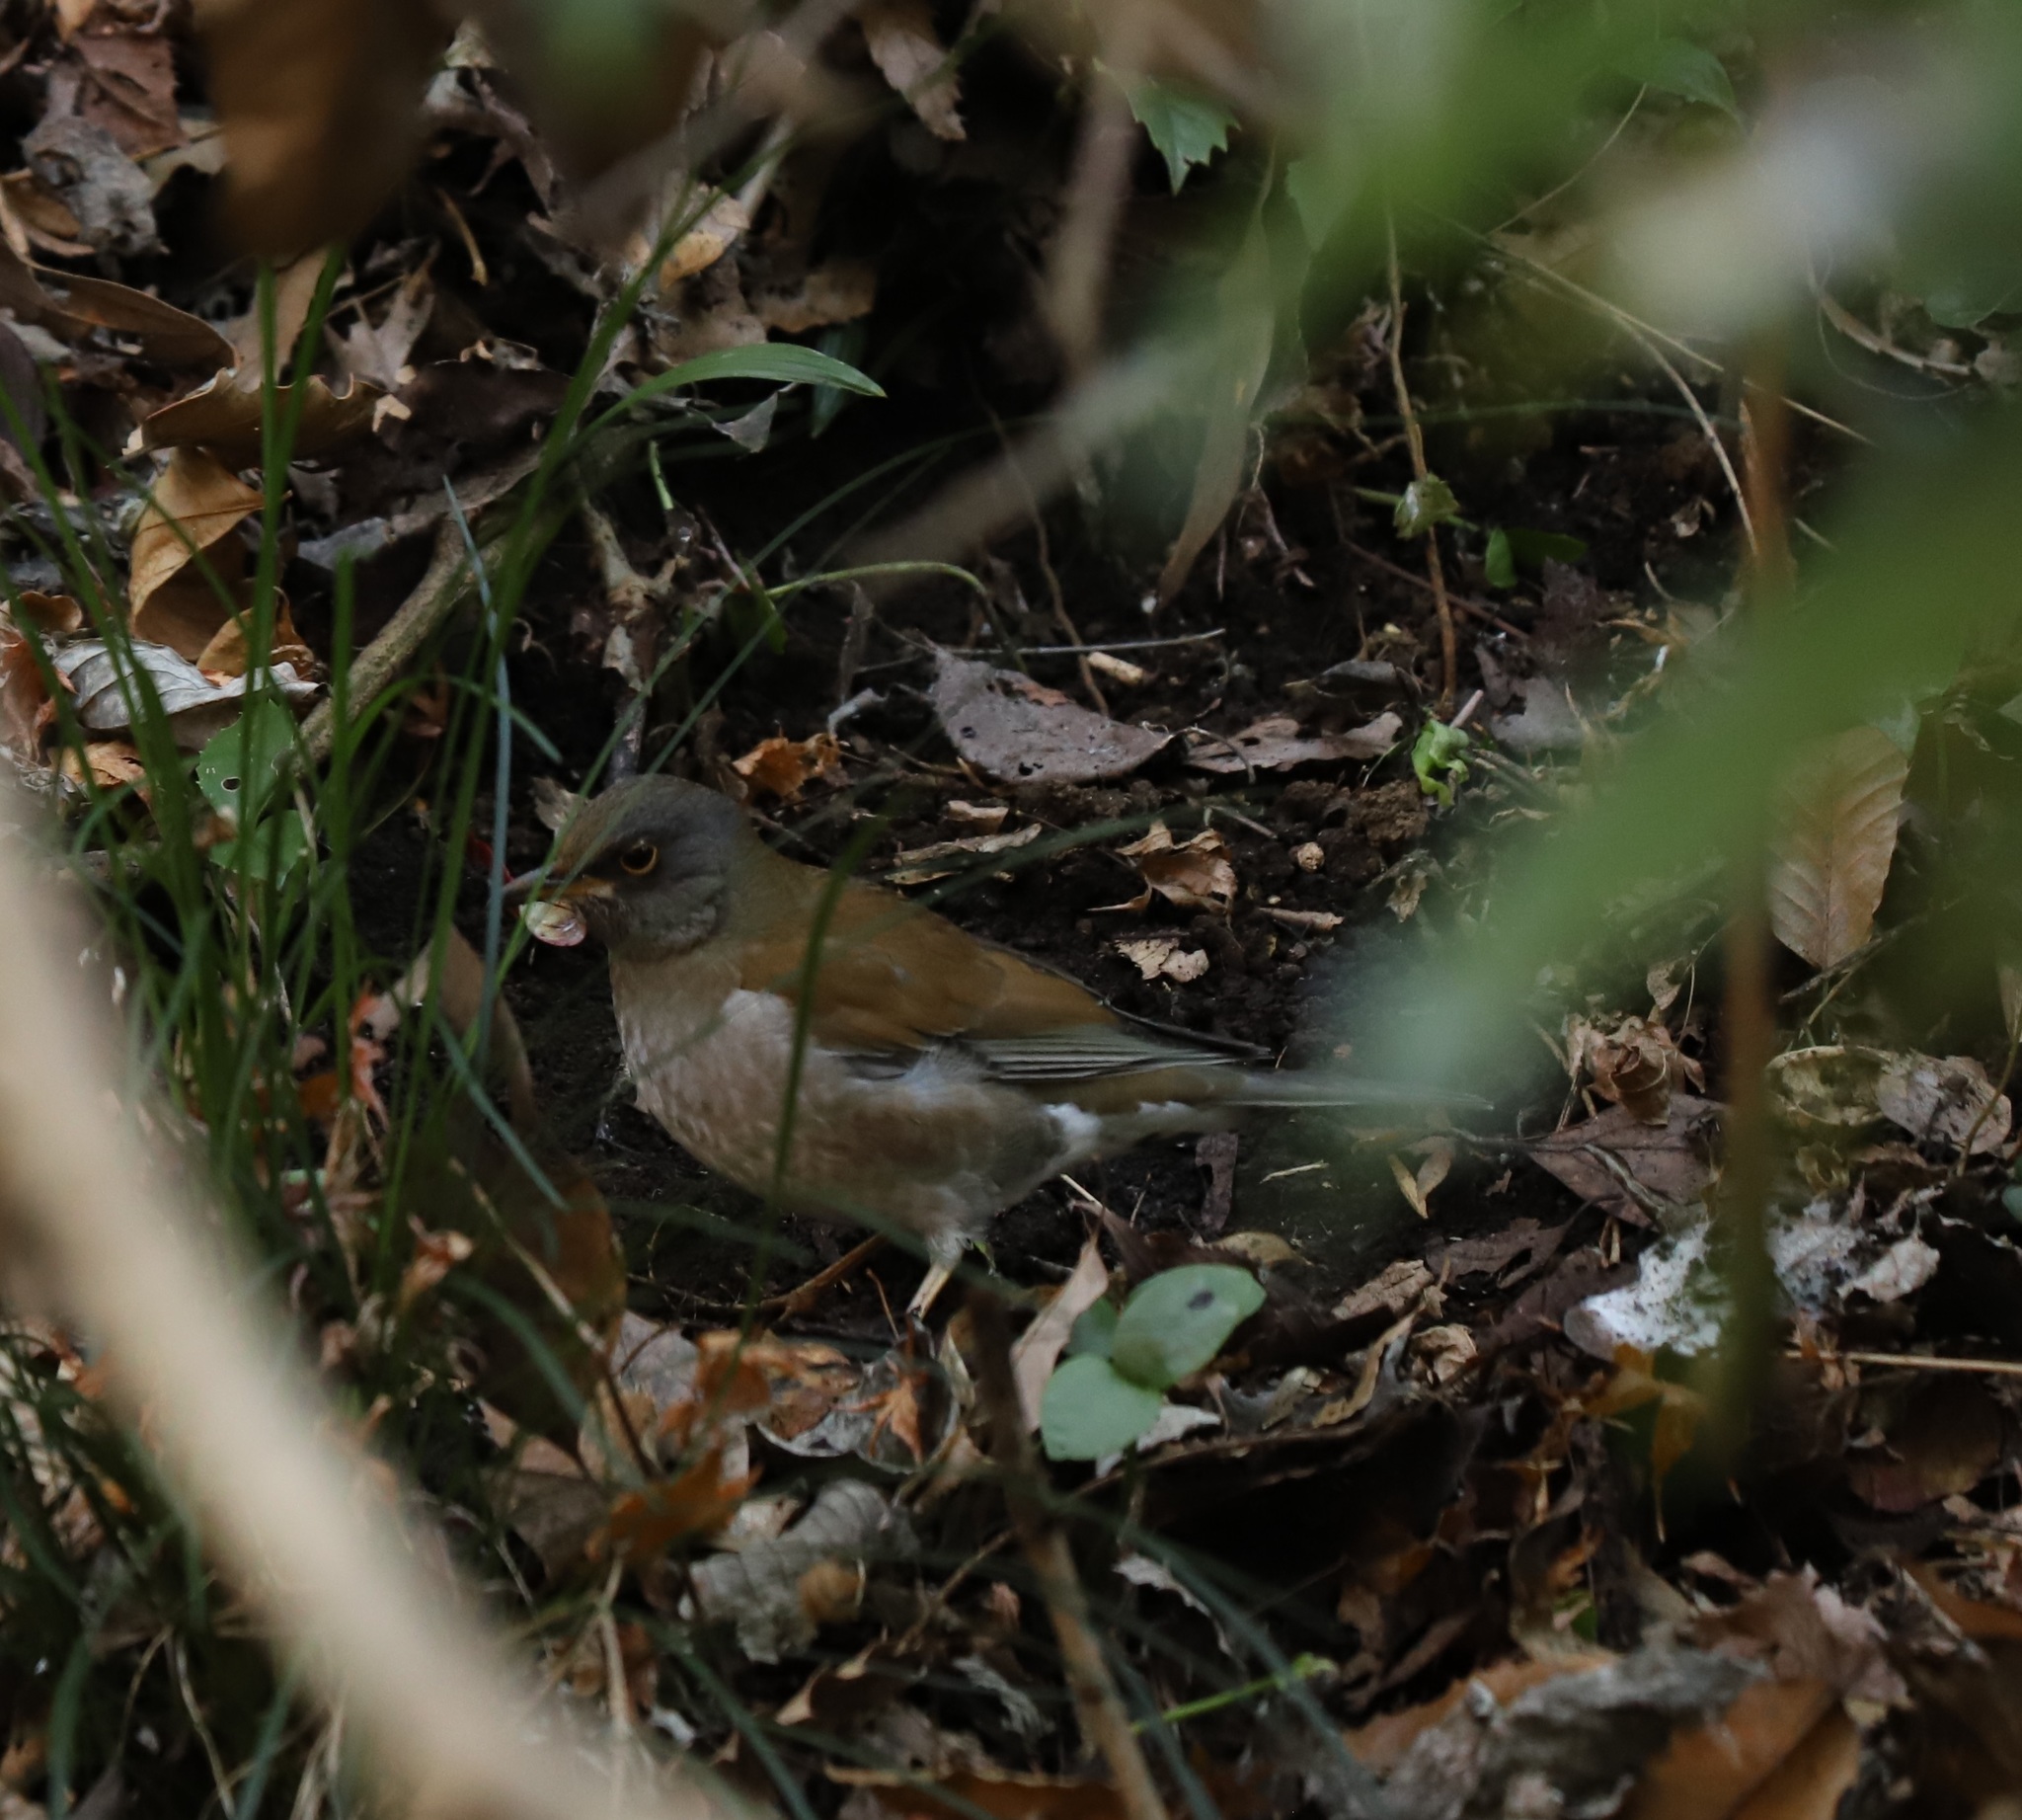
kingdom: Animalia
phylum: Chordata
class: Aves
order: Passeriformes
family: Turdidae
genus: Turdus
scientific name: Turdus pallidus
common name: Pale thrush
